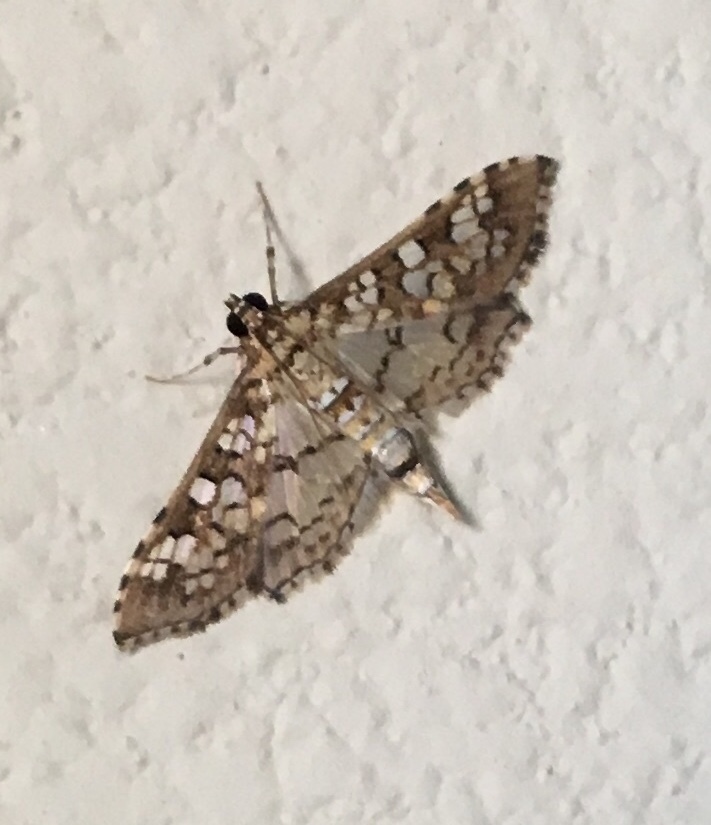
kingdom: Animalia
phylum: Arthropoda
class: Insecta
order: Lepidoptera
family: Crambidae
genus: Samea
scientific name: Samea ecclesialis
